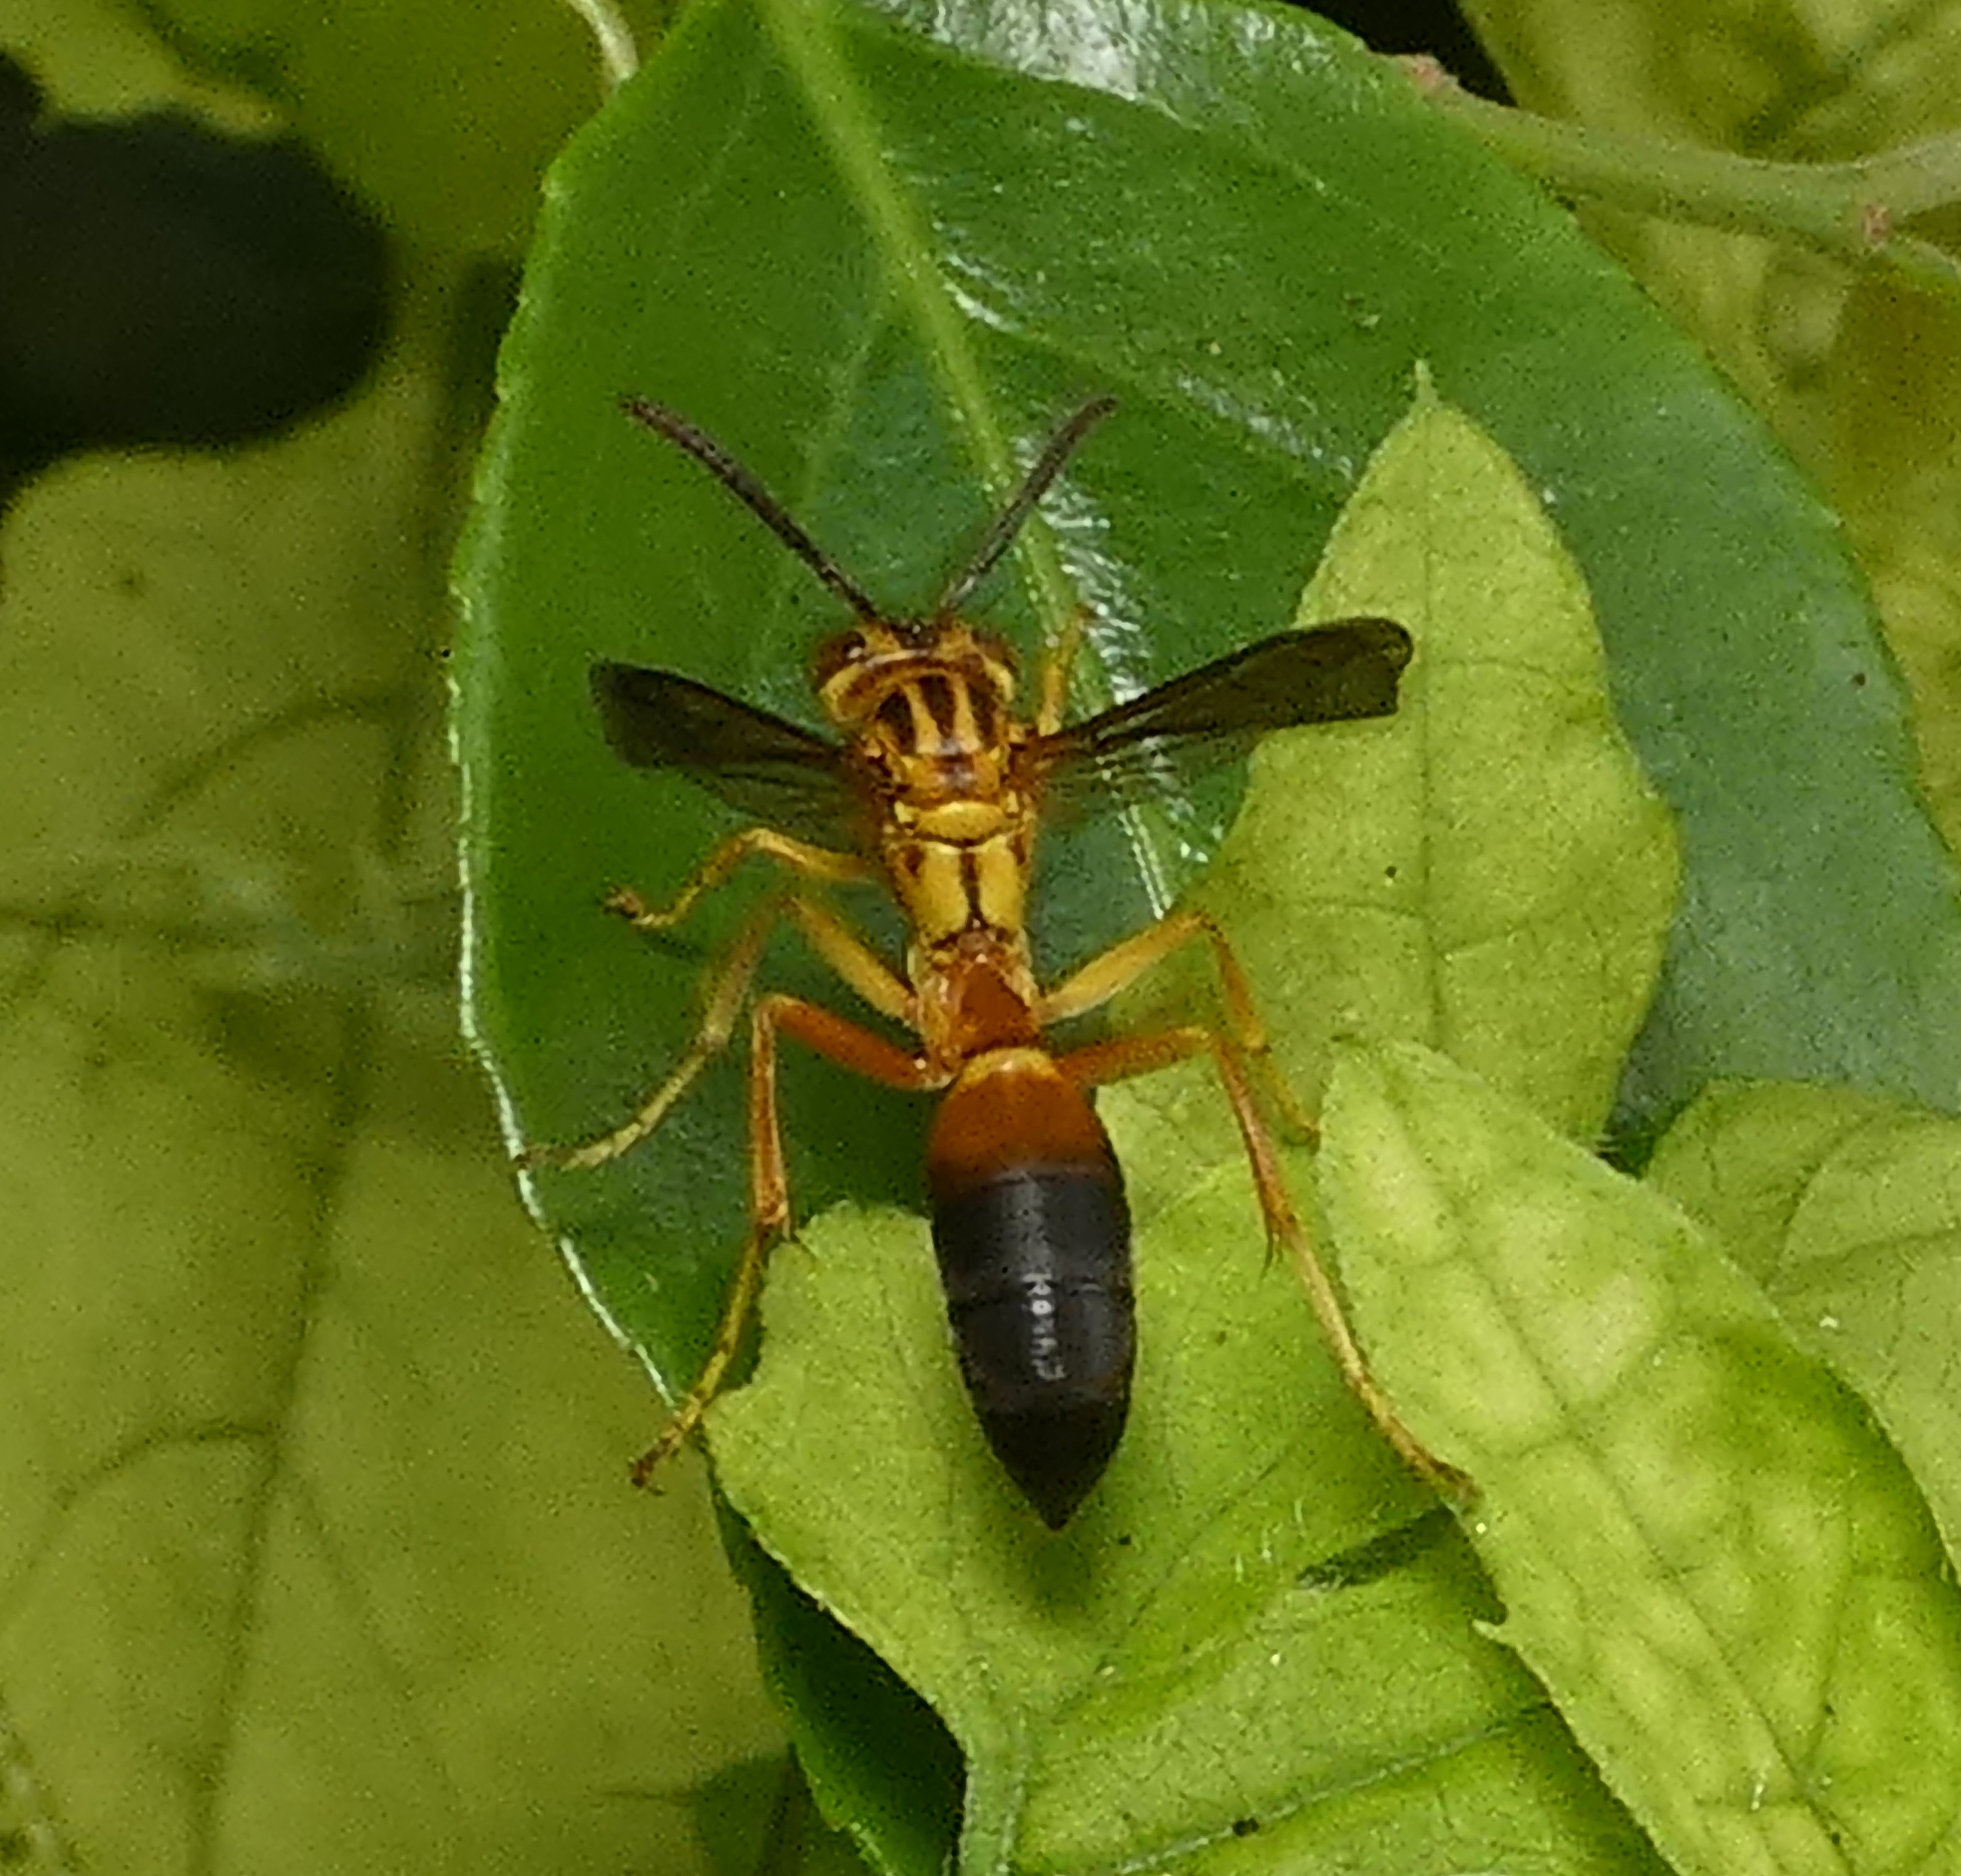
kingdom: Animalia
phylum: Arthropoda
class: Insecta
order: Hymenoptera
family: Vespidae
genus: Agelaia
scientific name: Agelaia pallipes
